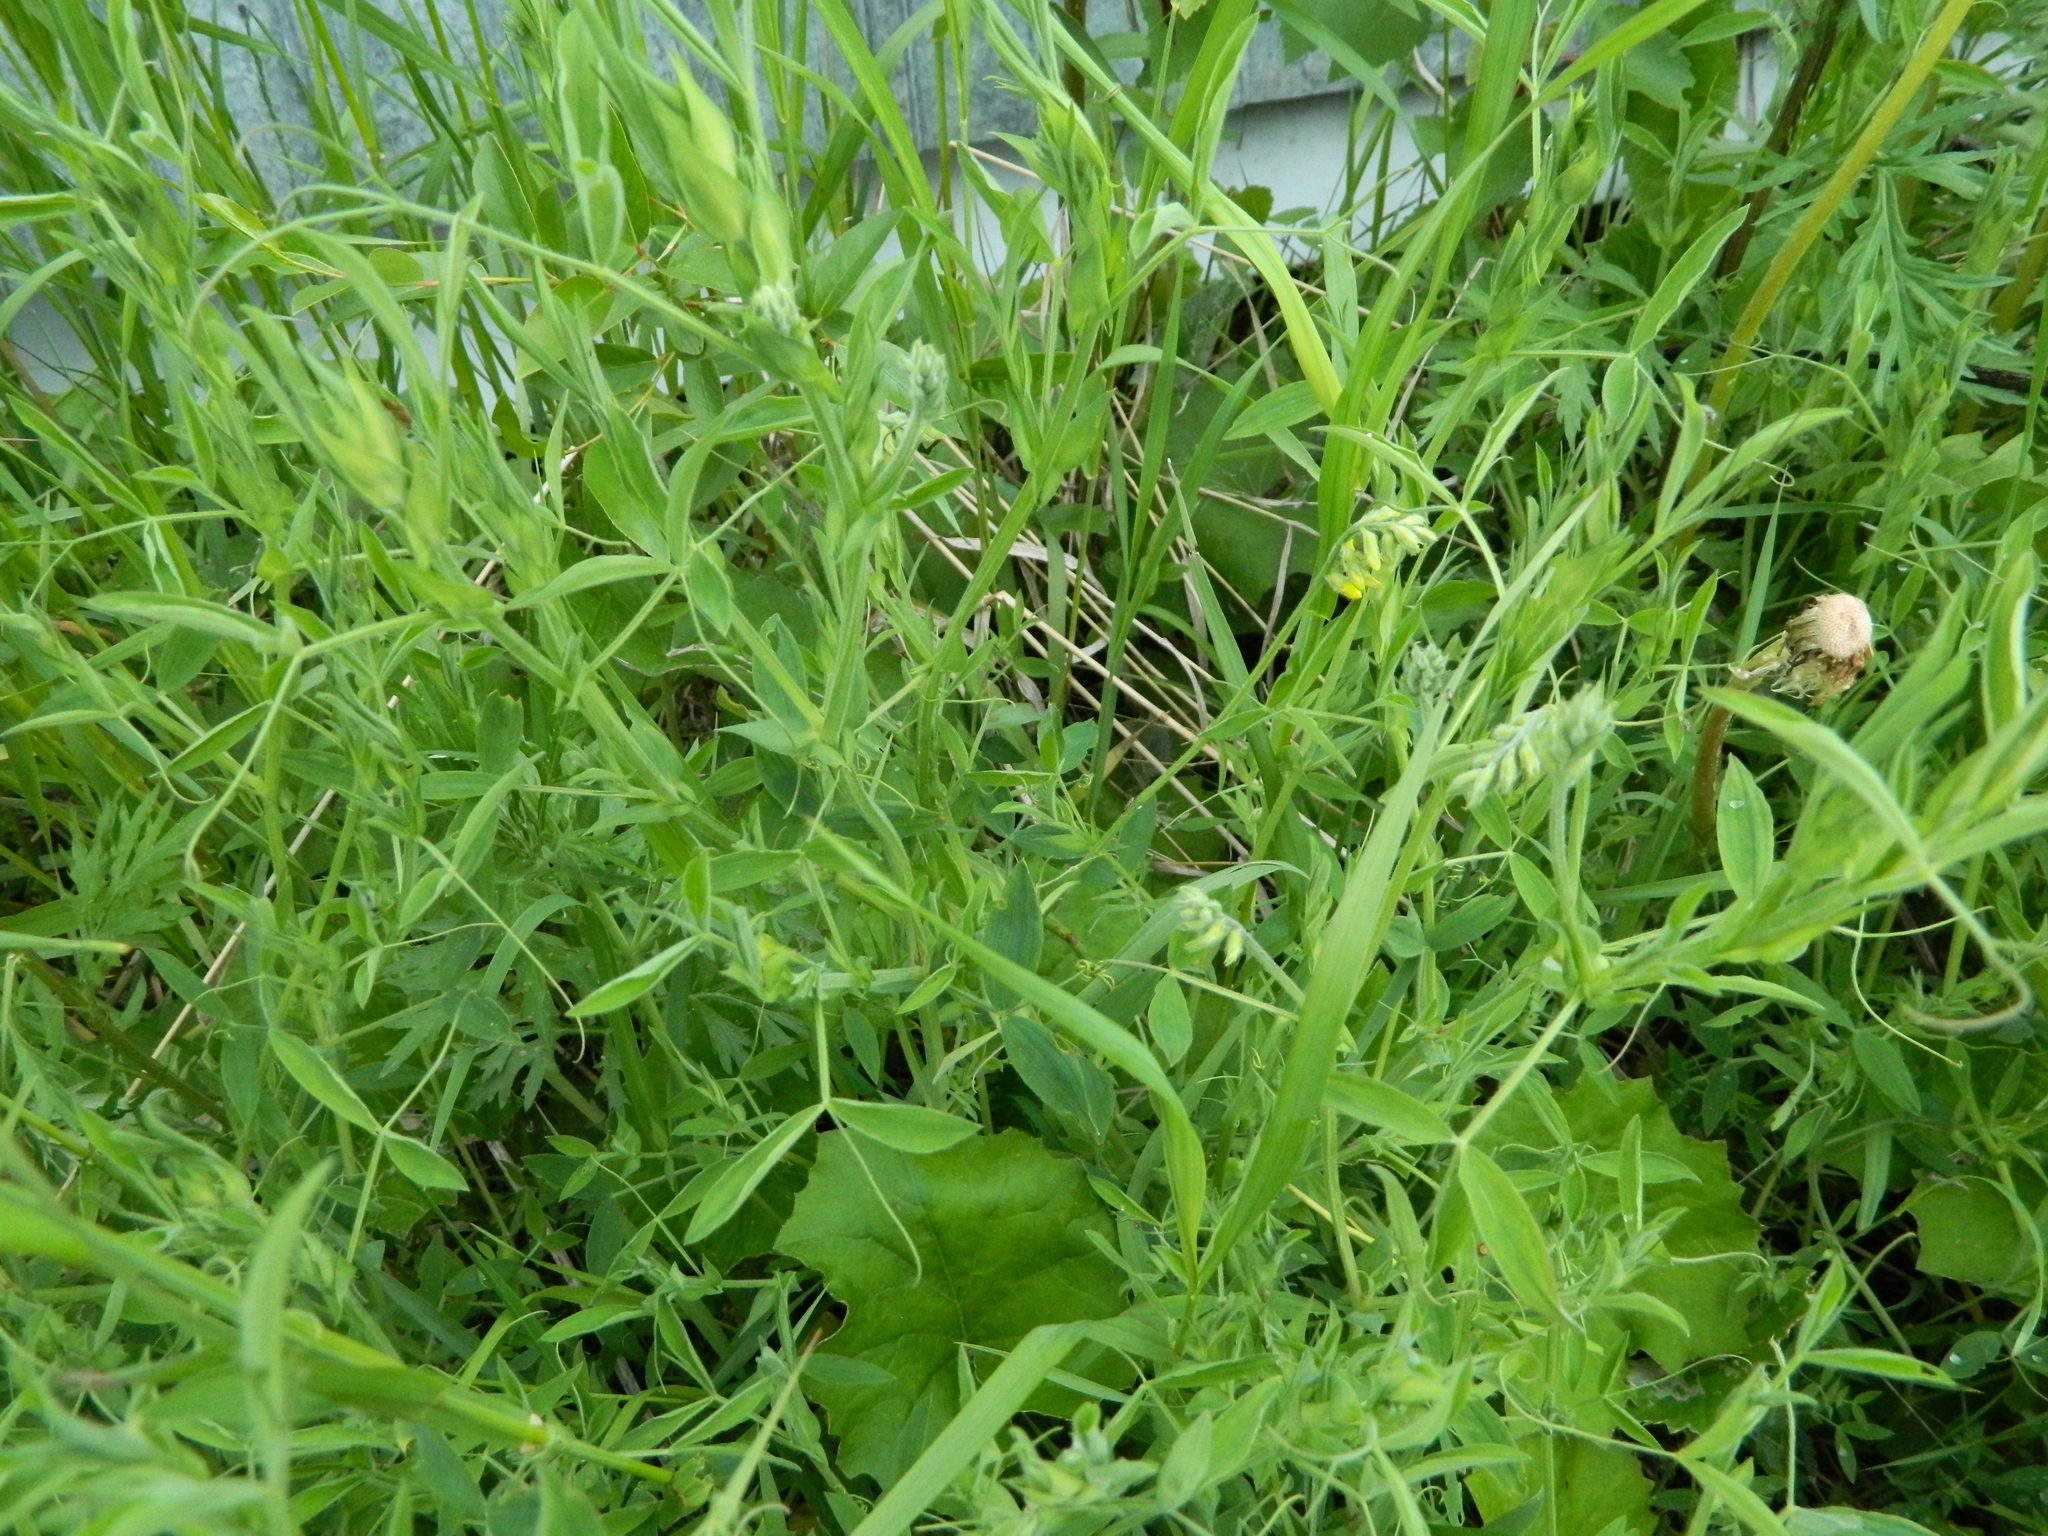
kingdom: Plantae
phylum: Tracheophyta
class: Magnoliopsida
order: Fabales
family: Fabaceae
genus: Lathyrus
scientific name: Lathyrus pratensis
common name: Meadow vetchling
